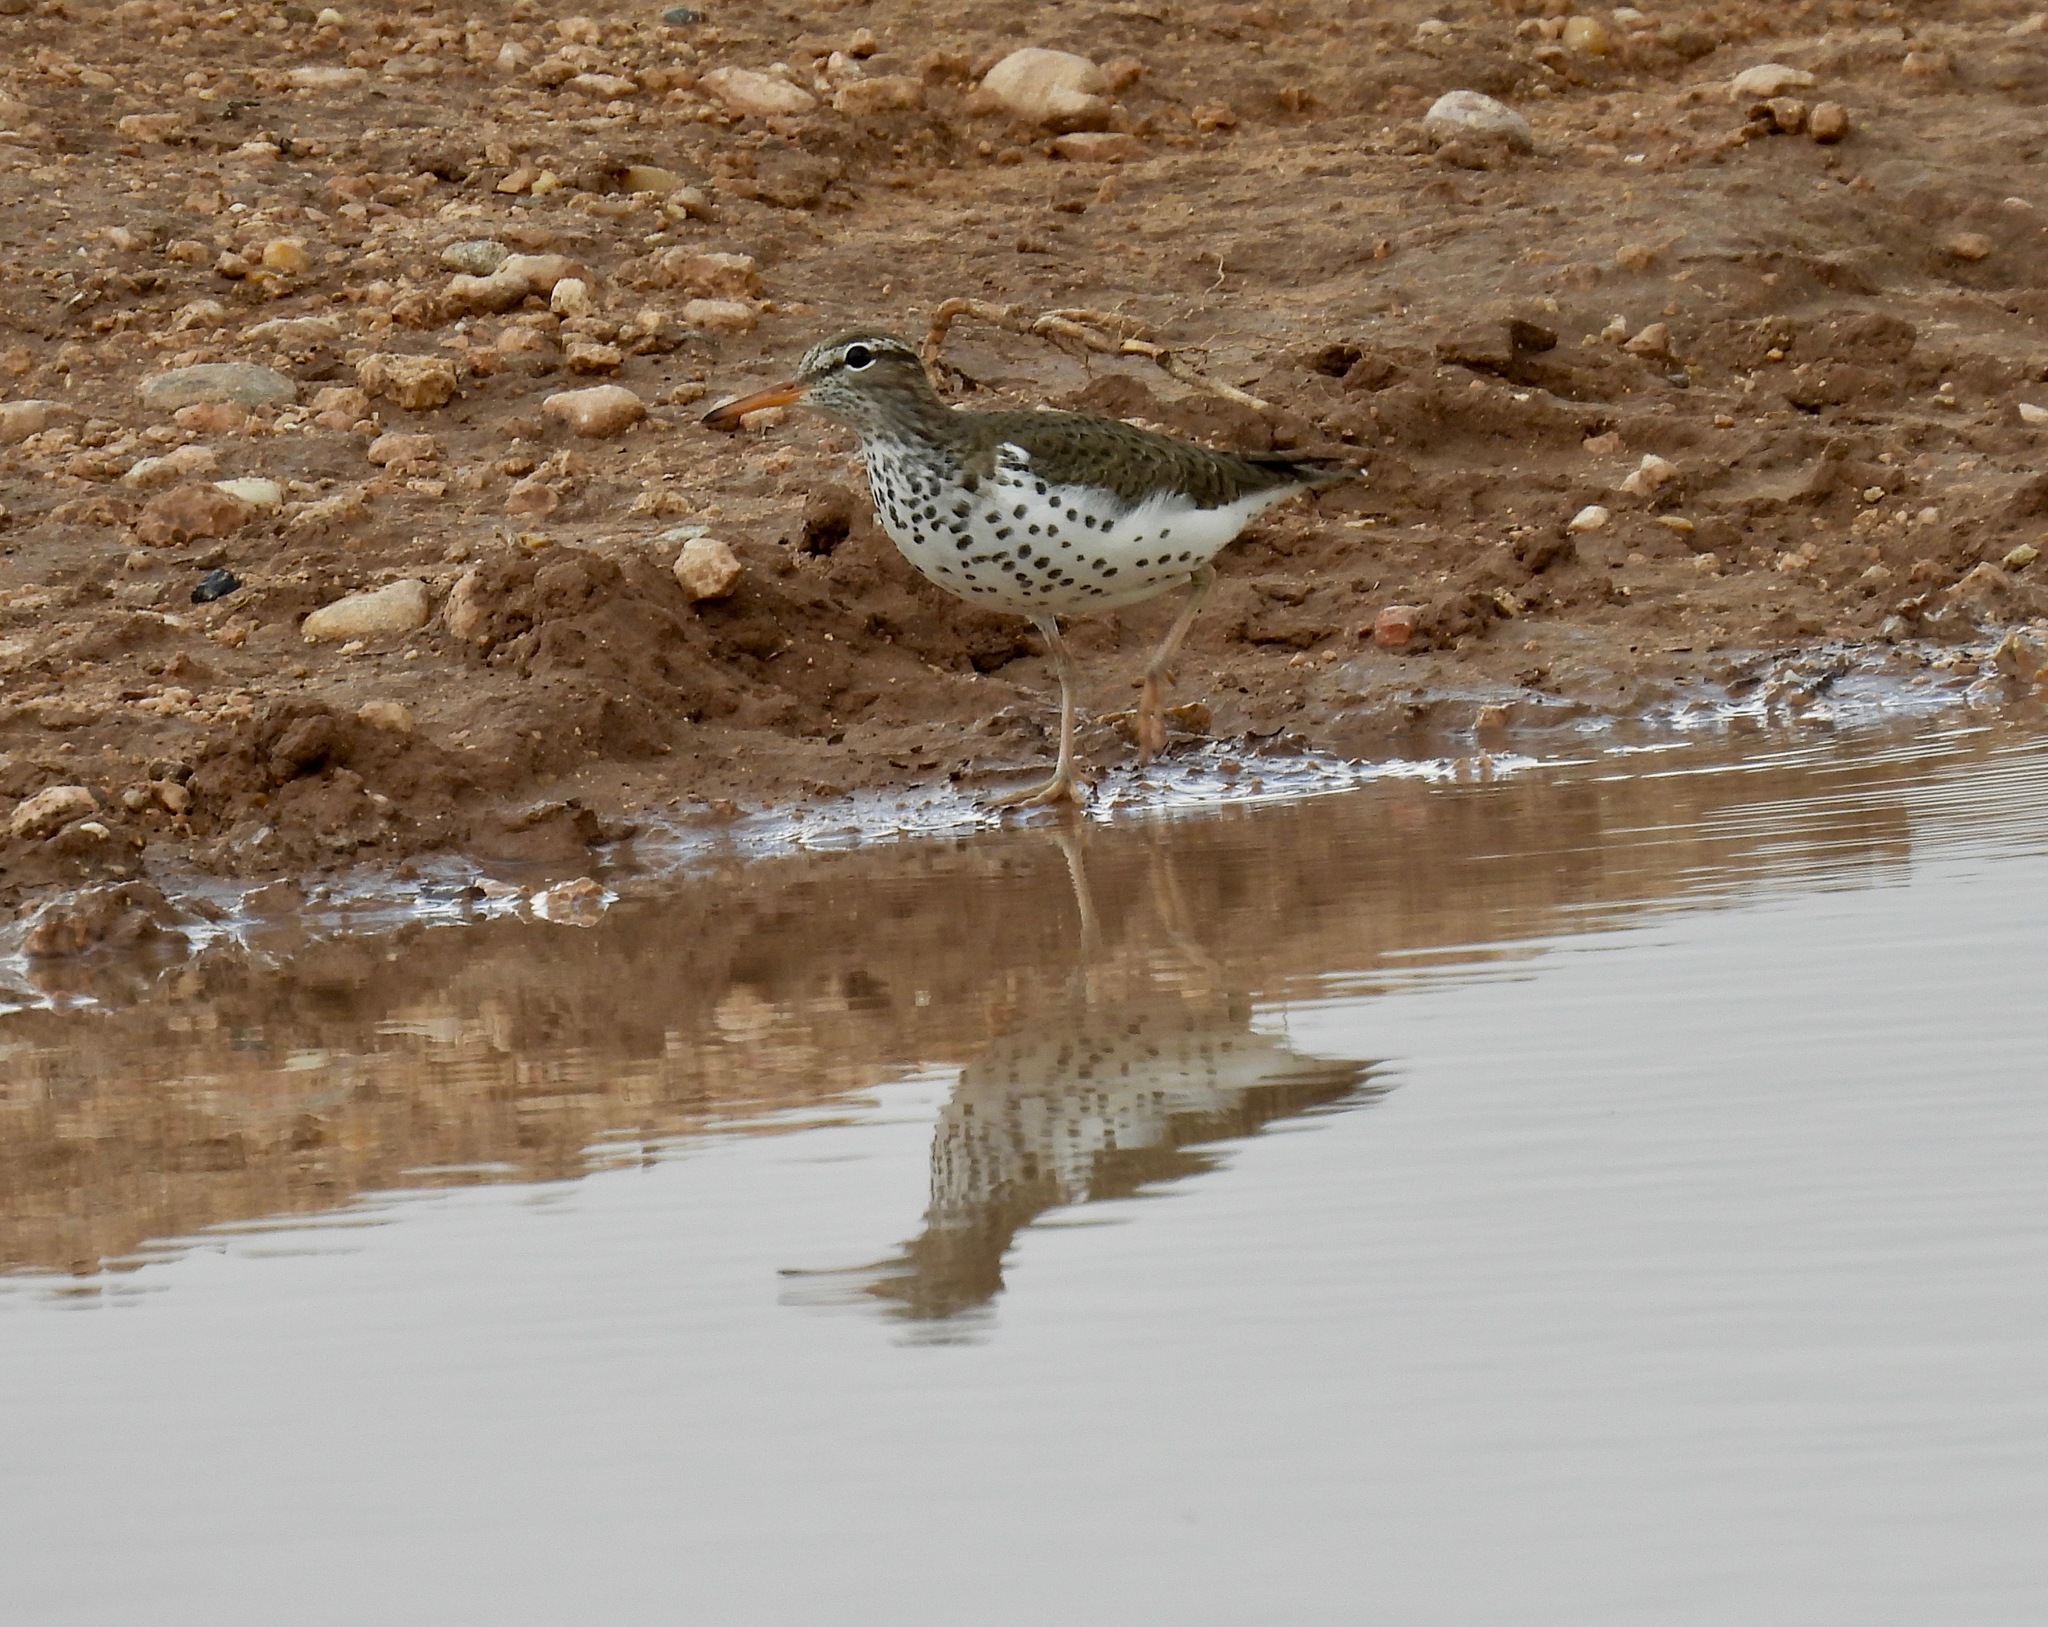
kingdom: Animalia
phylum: Chordata
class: Aves
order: Charadriiformes
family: Scolopacidae
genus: Actitis
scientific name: Actitis macularius
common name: Spotted sandpiper
